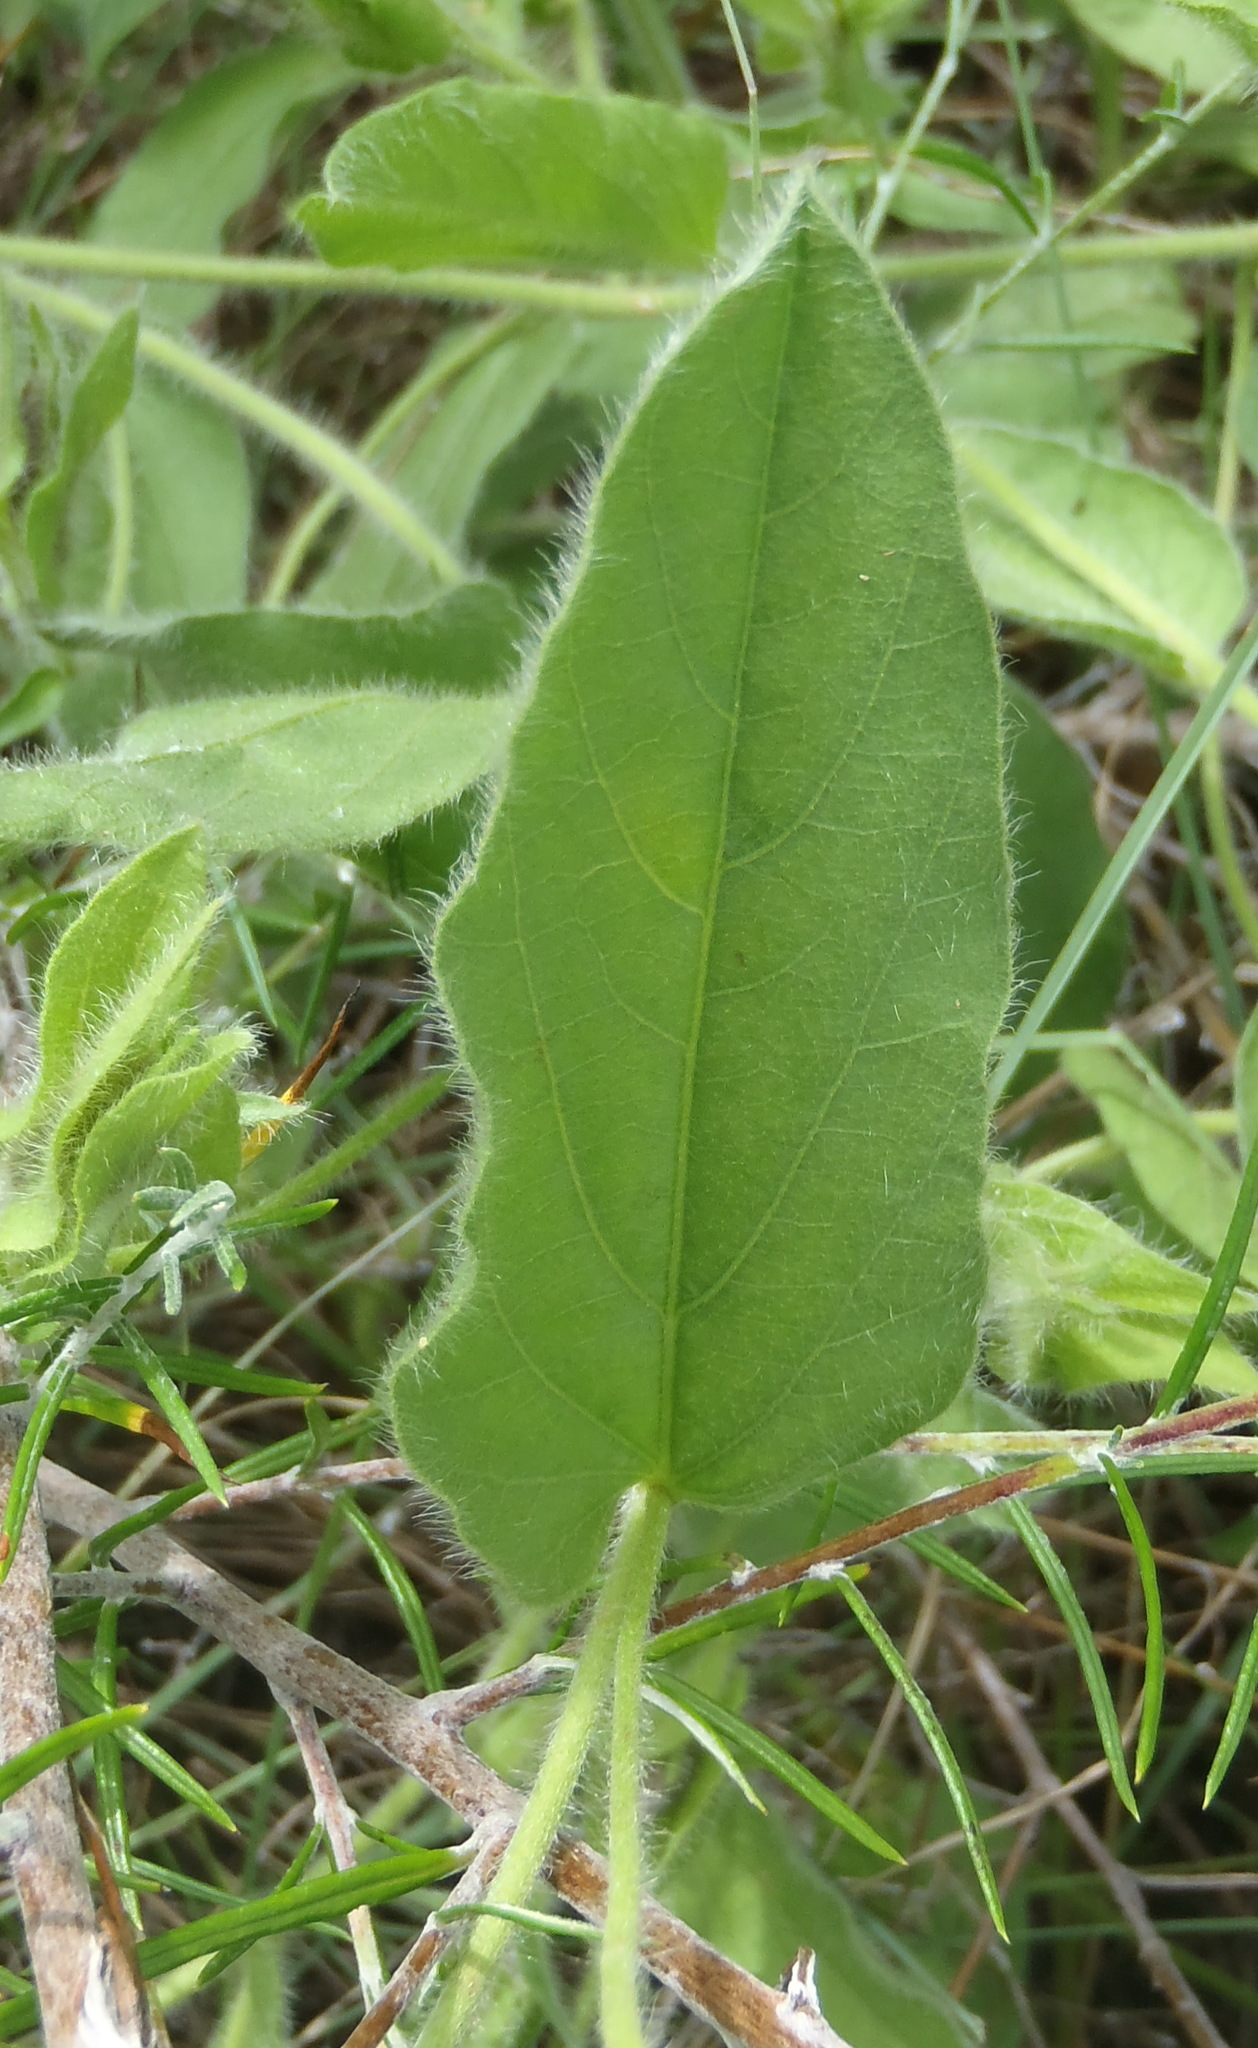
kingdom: Plantae
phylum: Tracheophyta
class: Magnoliopsida
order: Solanales
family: Convolvulaceae
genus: Ipomoea
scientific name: Ipomoea pellita
